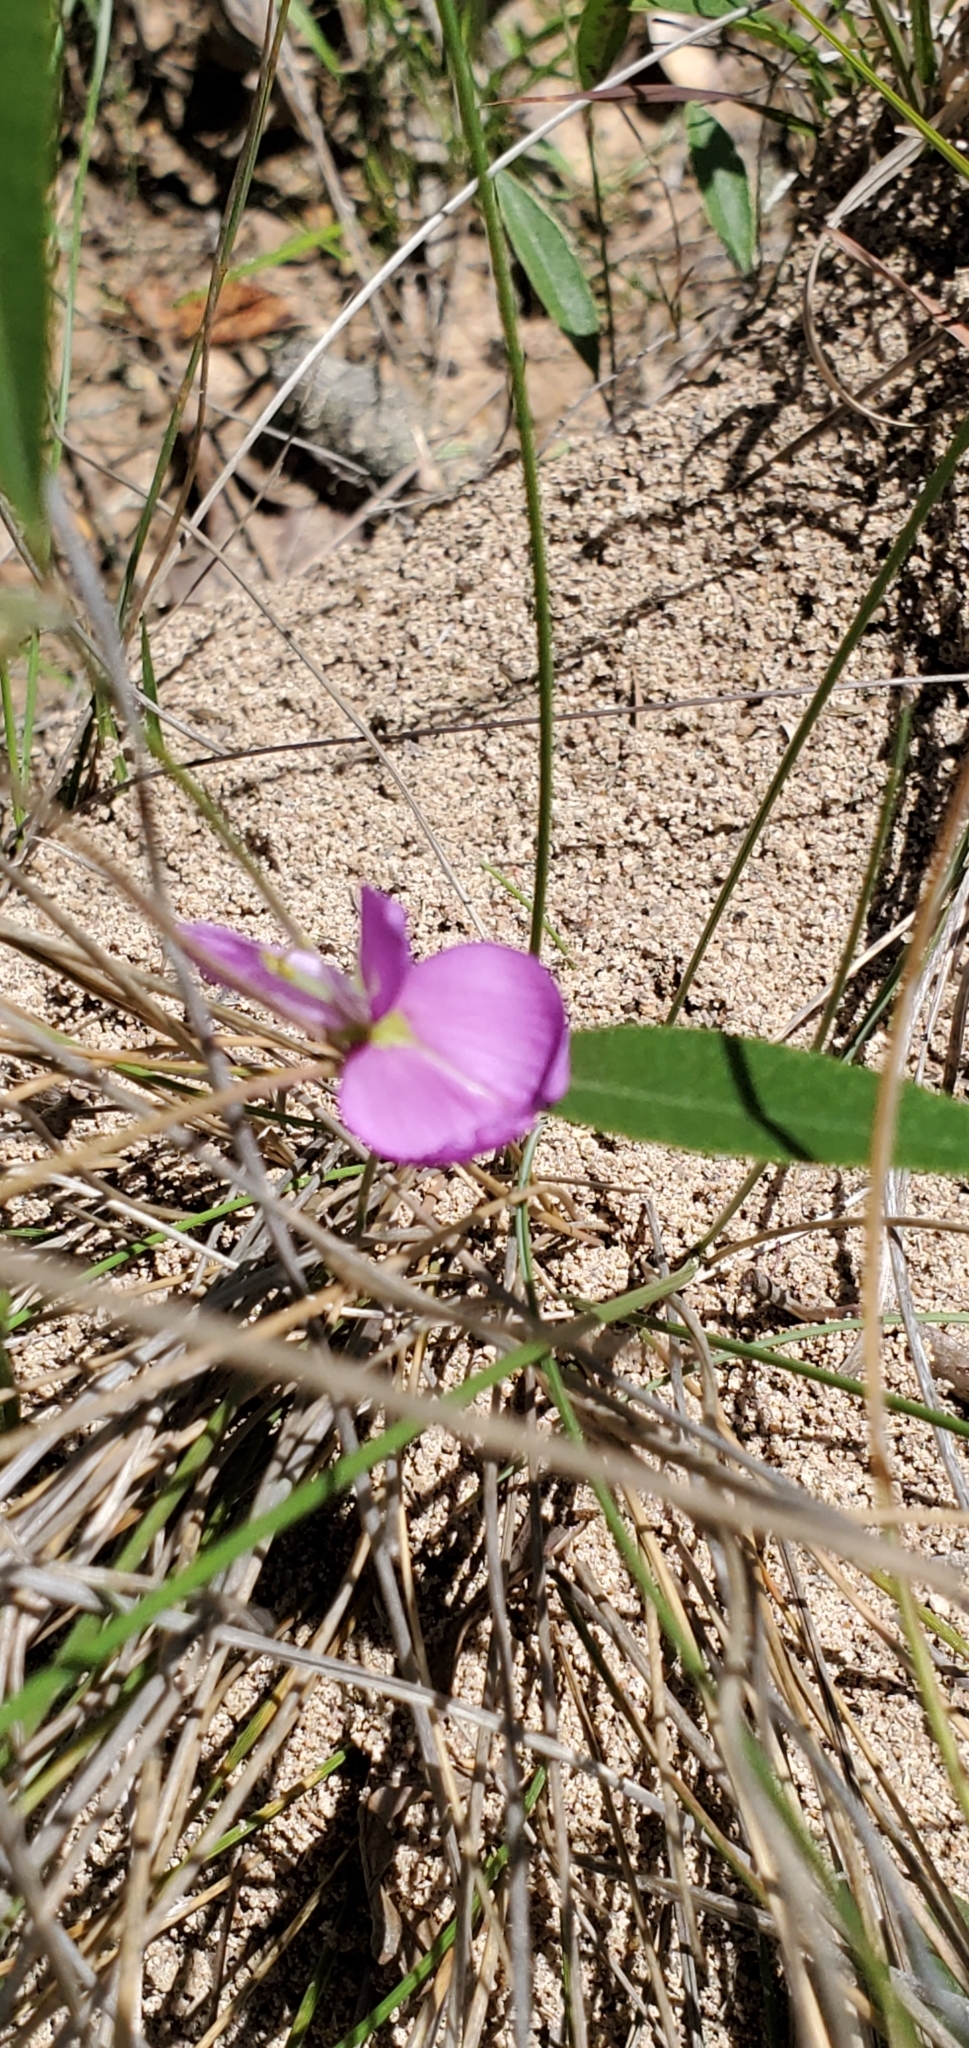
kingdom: Plantae
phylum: Tracheophyta
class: Magnoliopsida
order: Fabales
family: Fabaceae
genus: Nanogalactia
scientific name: Nanogalactia heterophylla
